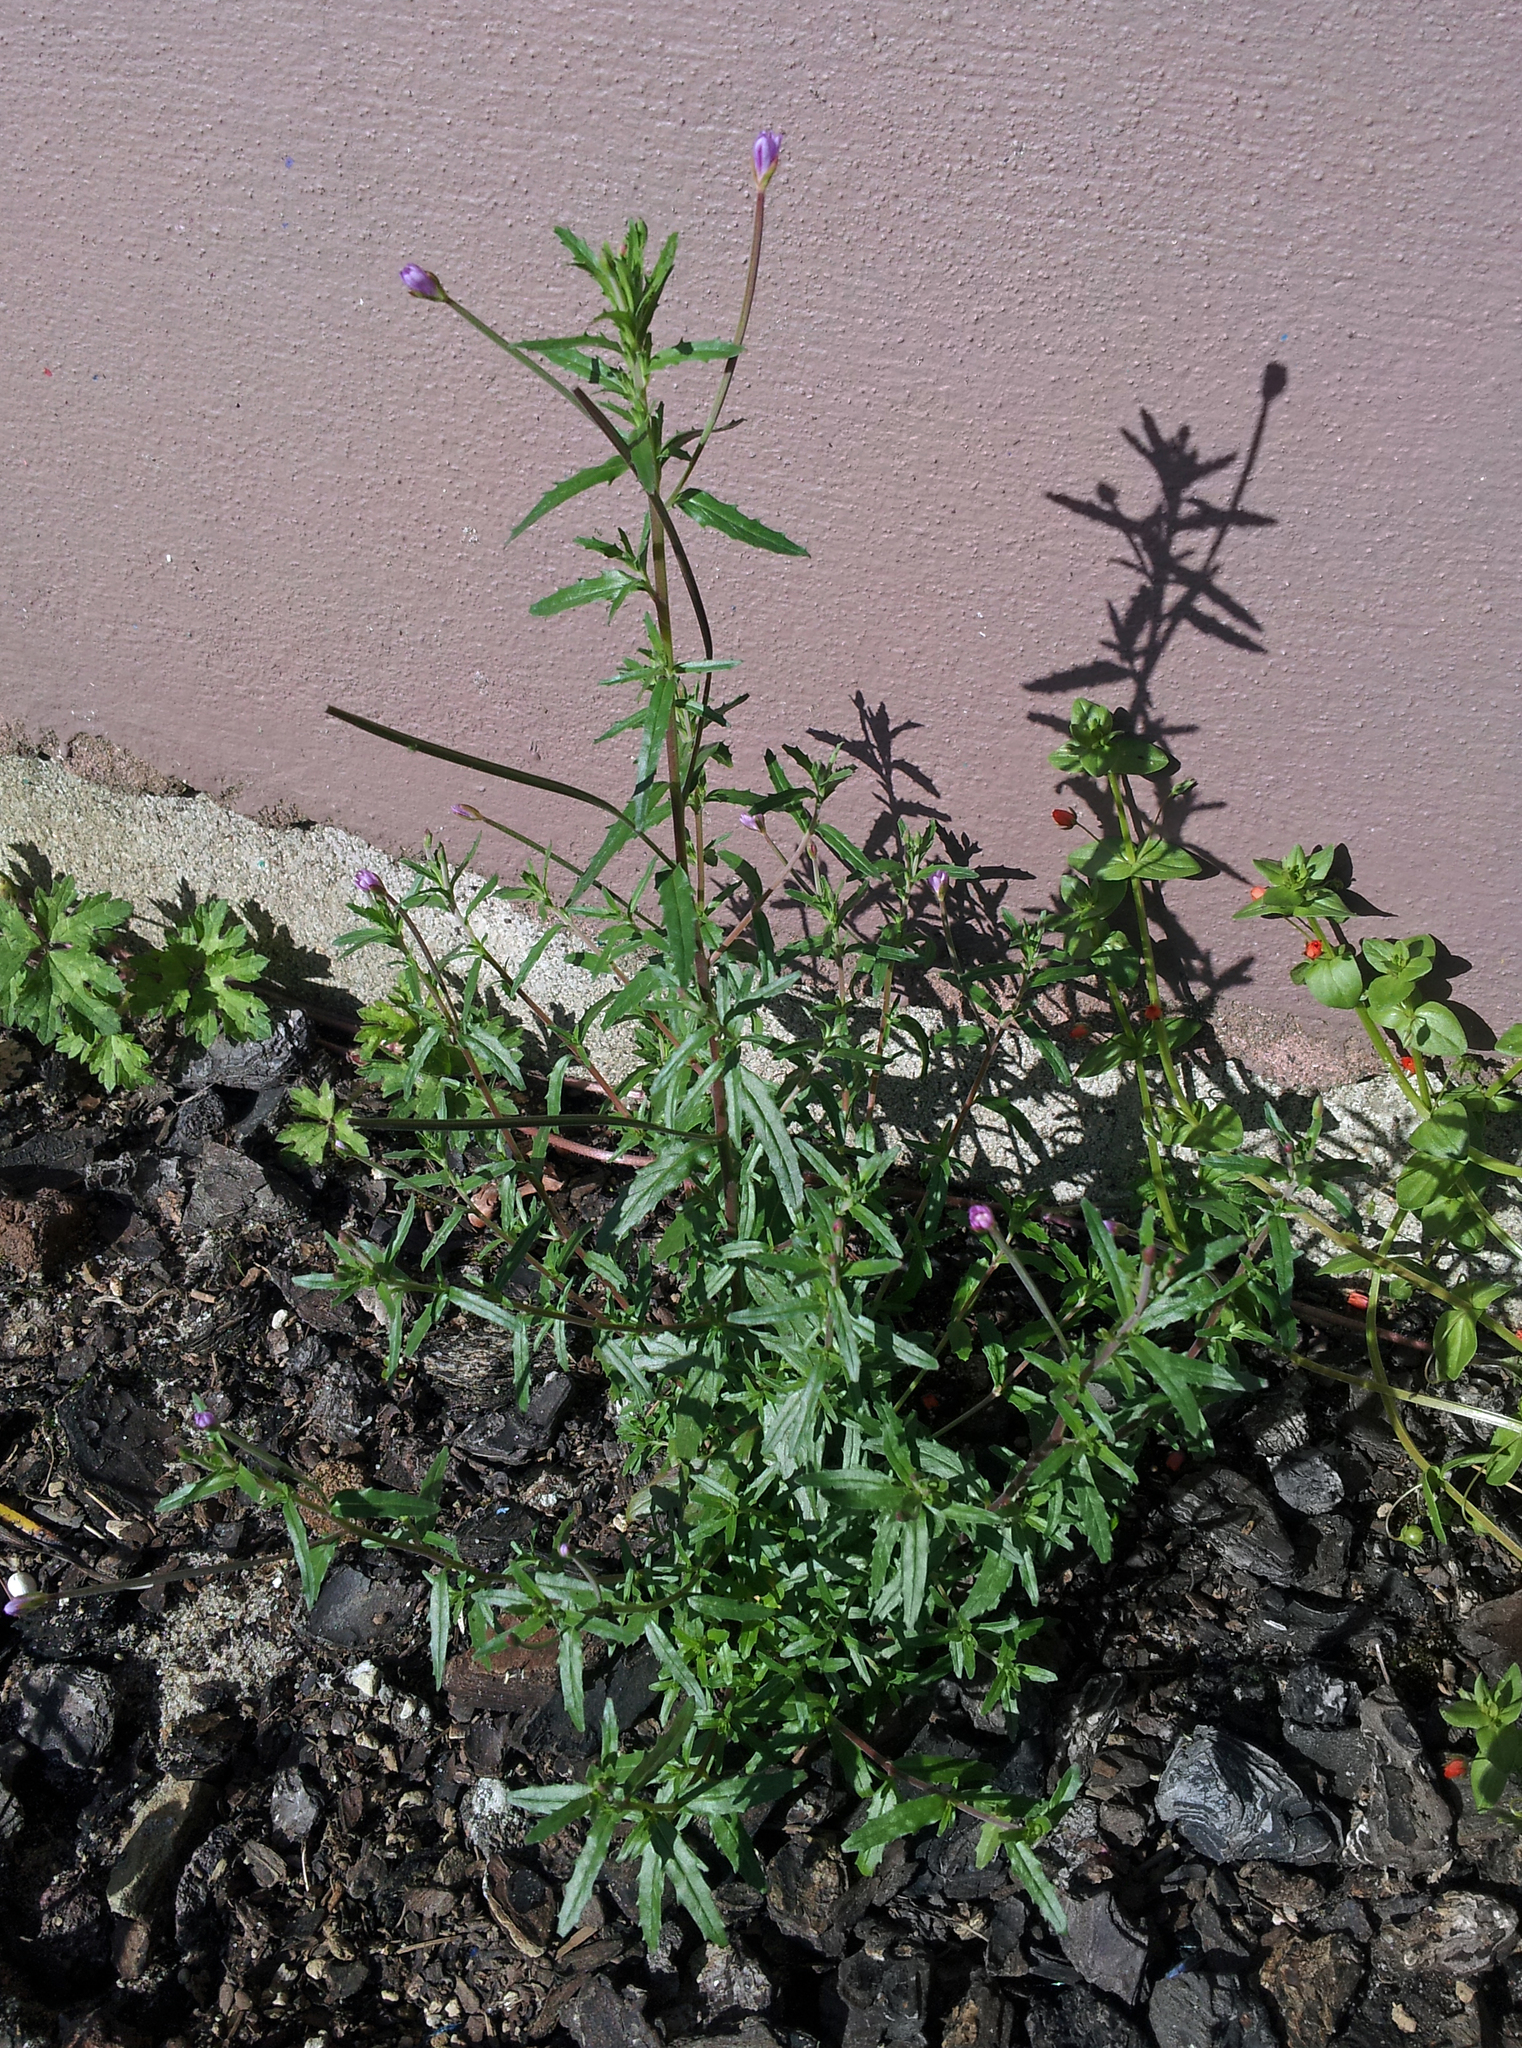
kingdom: Plantae
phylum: Tracheophyta
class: Magnoliopsida
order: Myrtales
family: Onagraceae
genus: Epilobium
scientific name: Epilobium billardierianum
